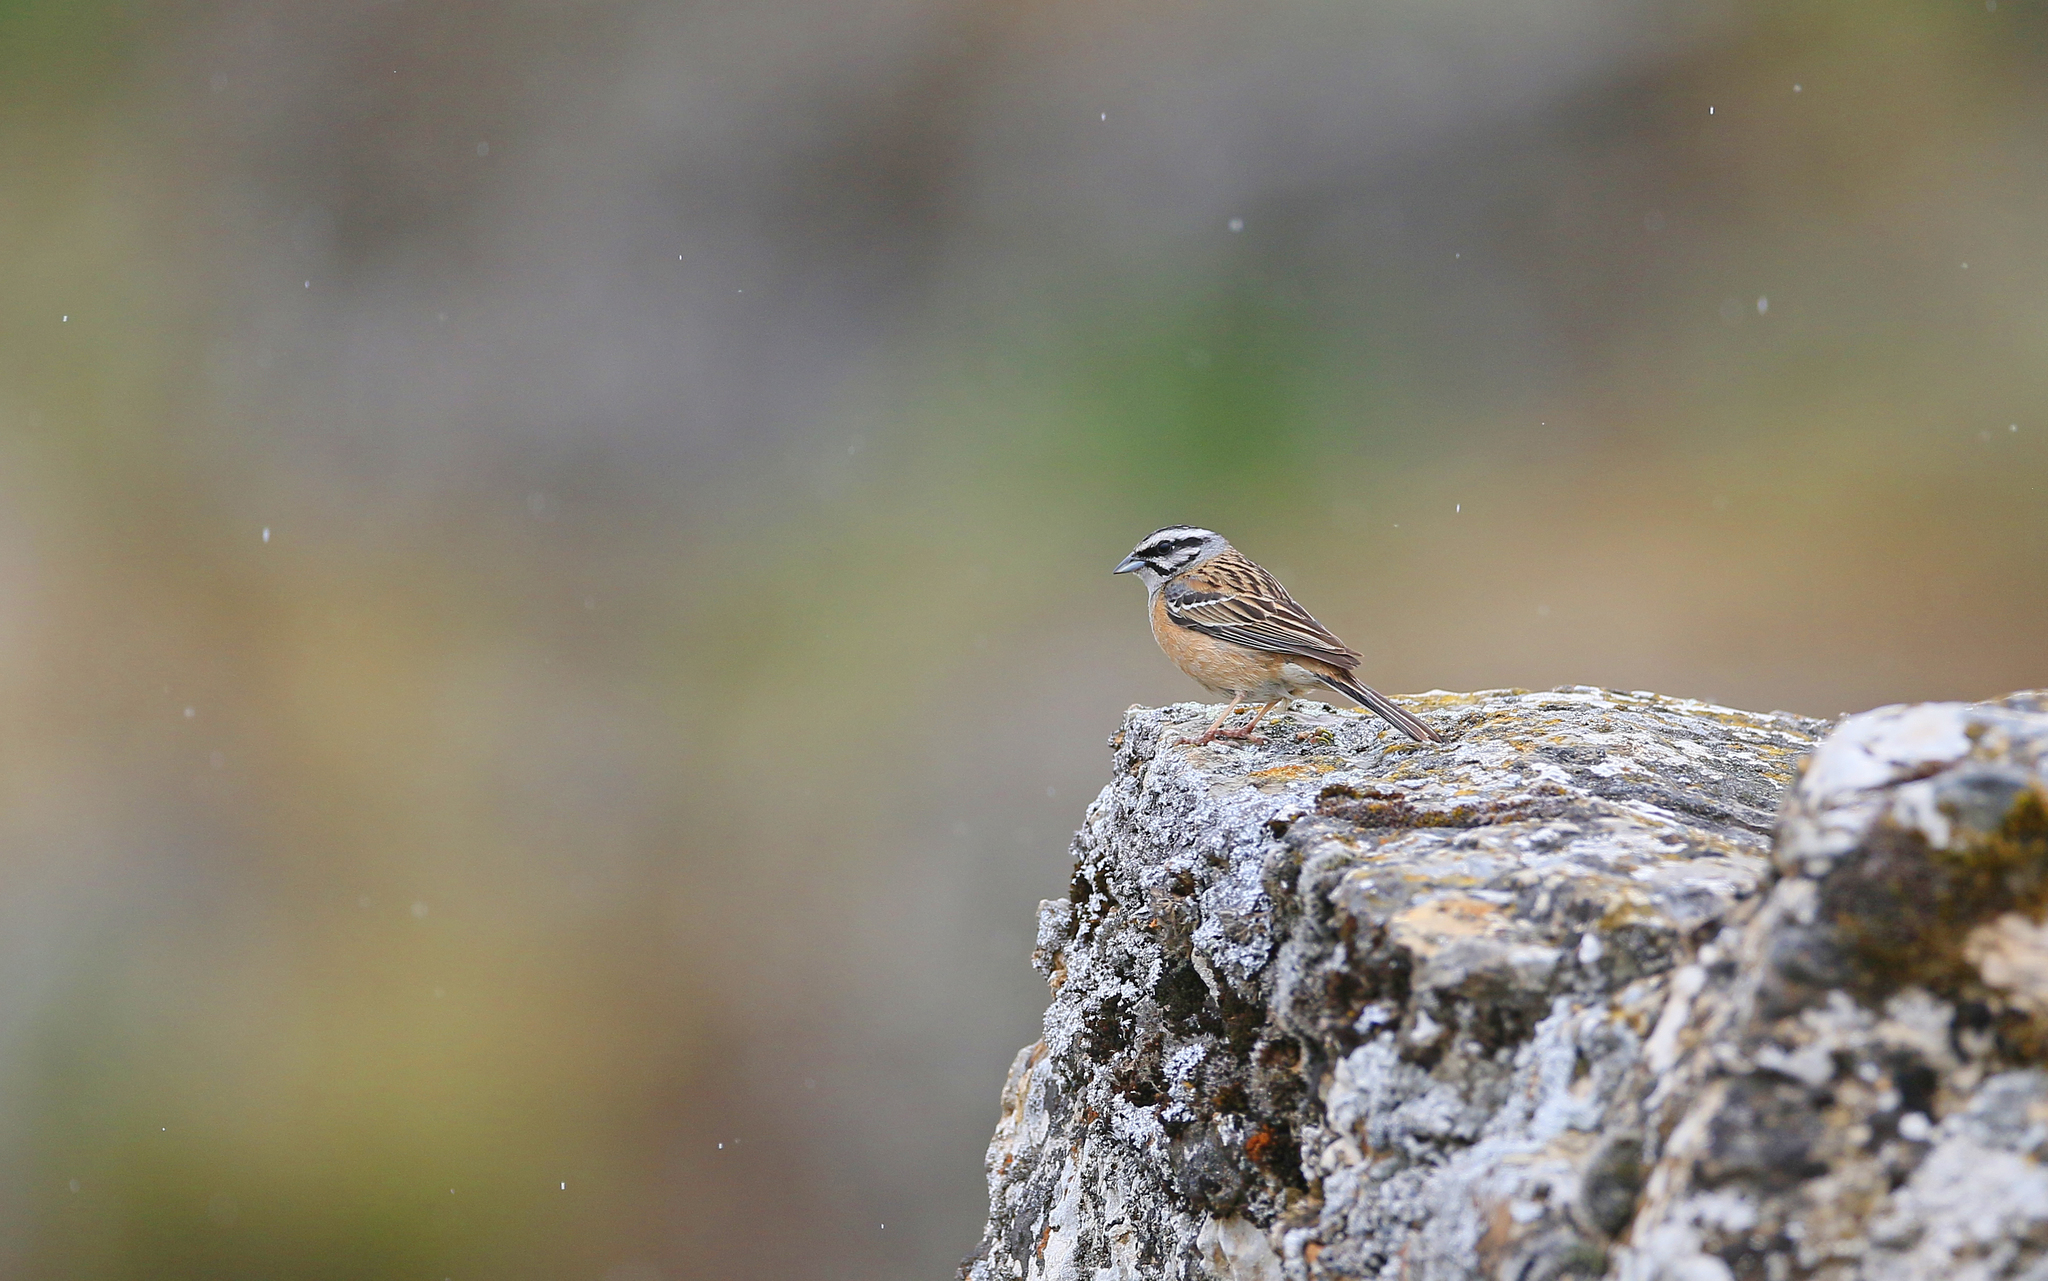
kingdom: Animalia
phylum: Chordata
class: Aves
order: Passeriformes
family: Emberizidae
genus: Emberiza
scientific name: Emberiza cia
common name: Rock bunting
